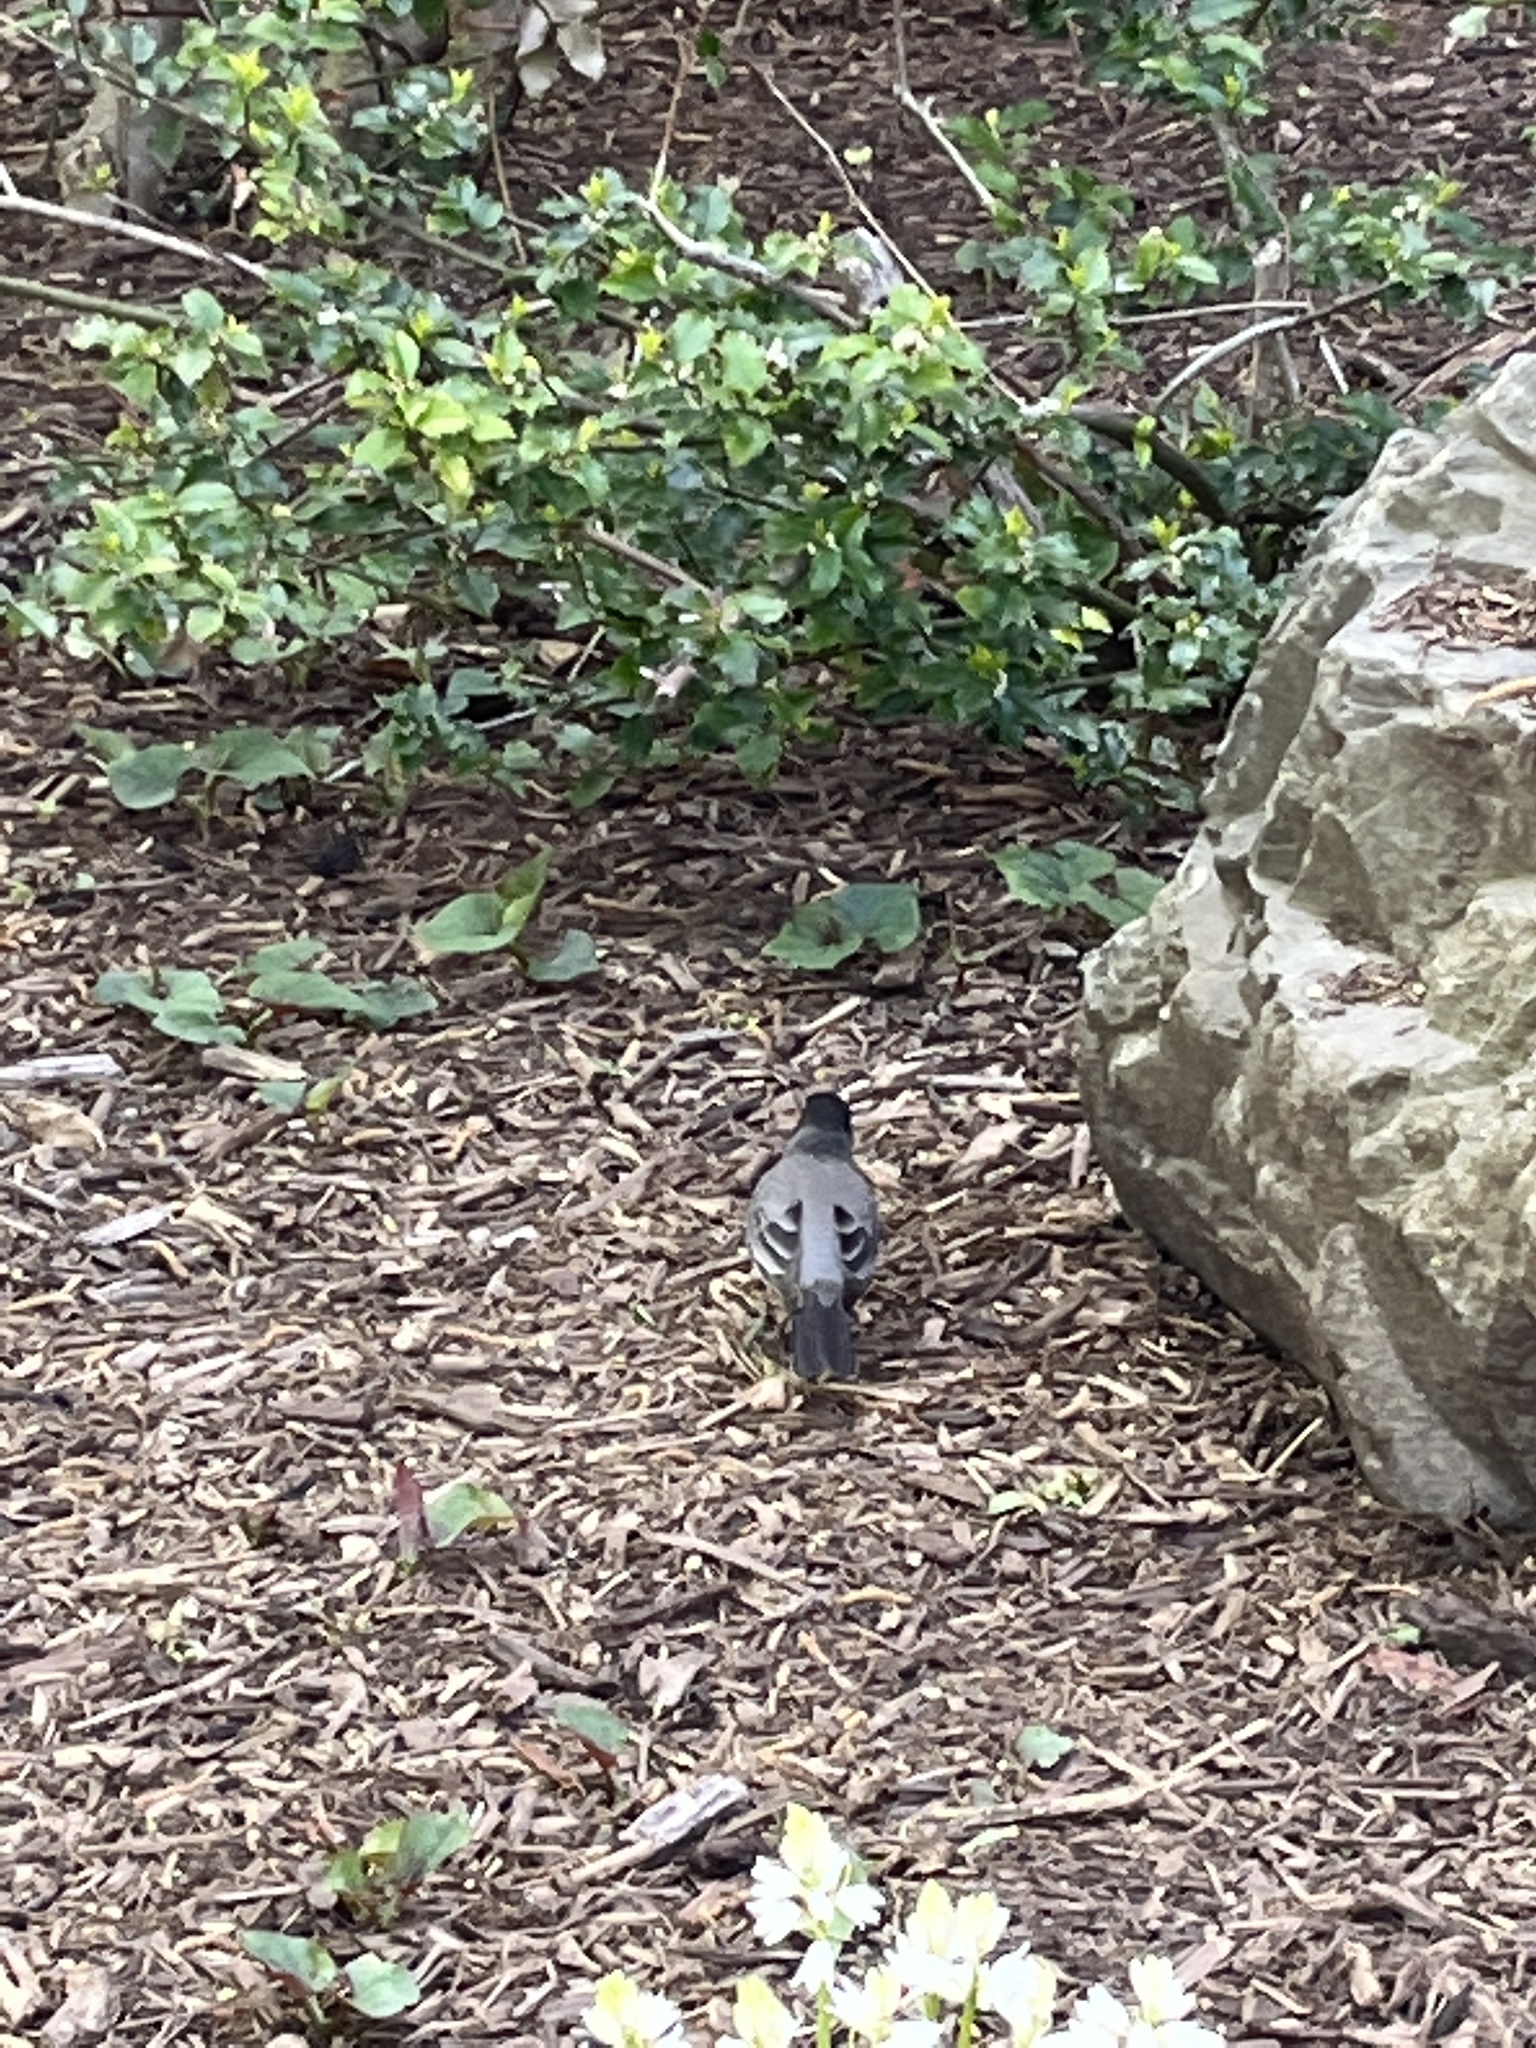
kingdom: Animalia
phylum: Chordata
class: Aves
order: Passeriformes
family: Turdidae
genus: Turdus
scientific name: Turdus migratorius
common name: American robin
